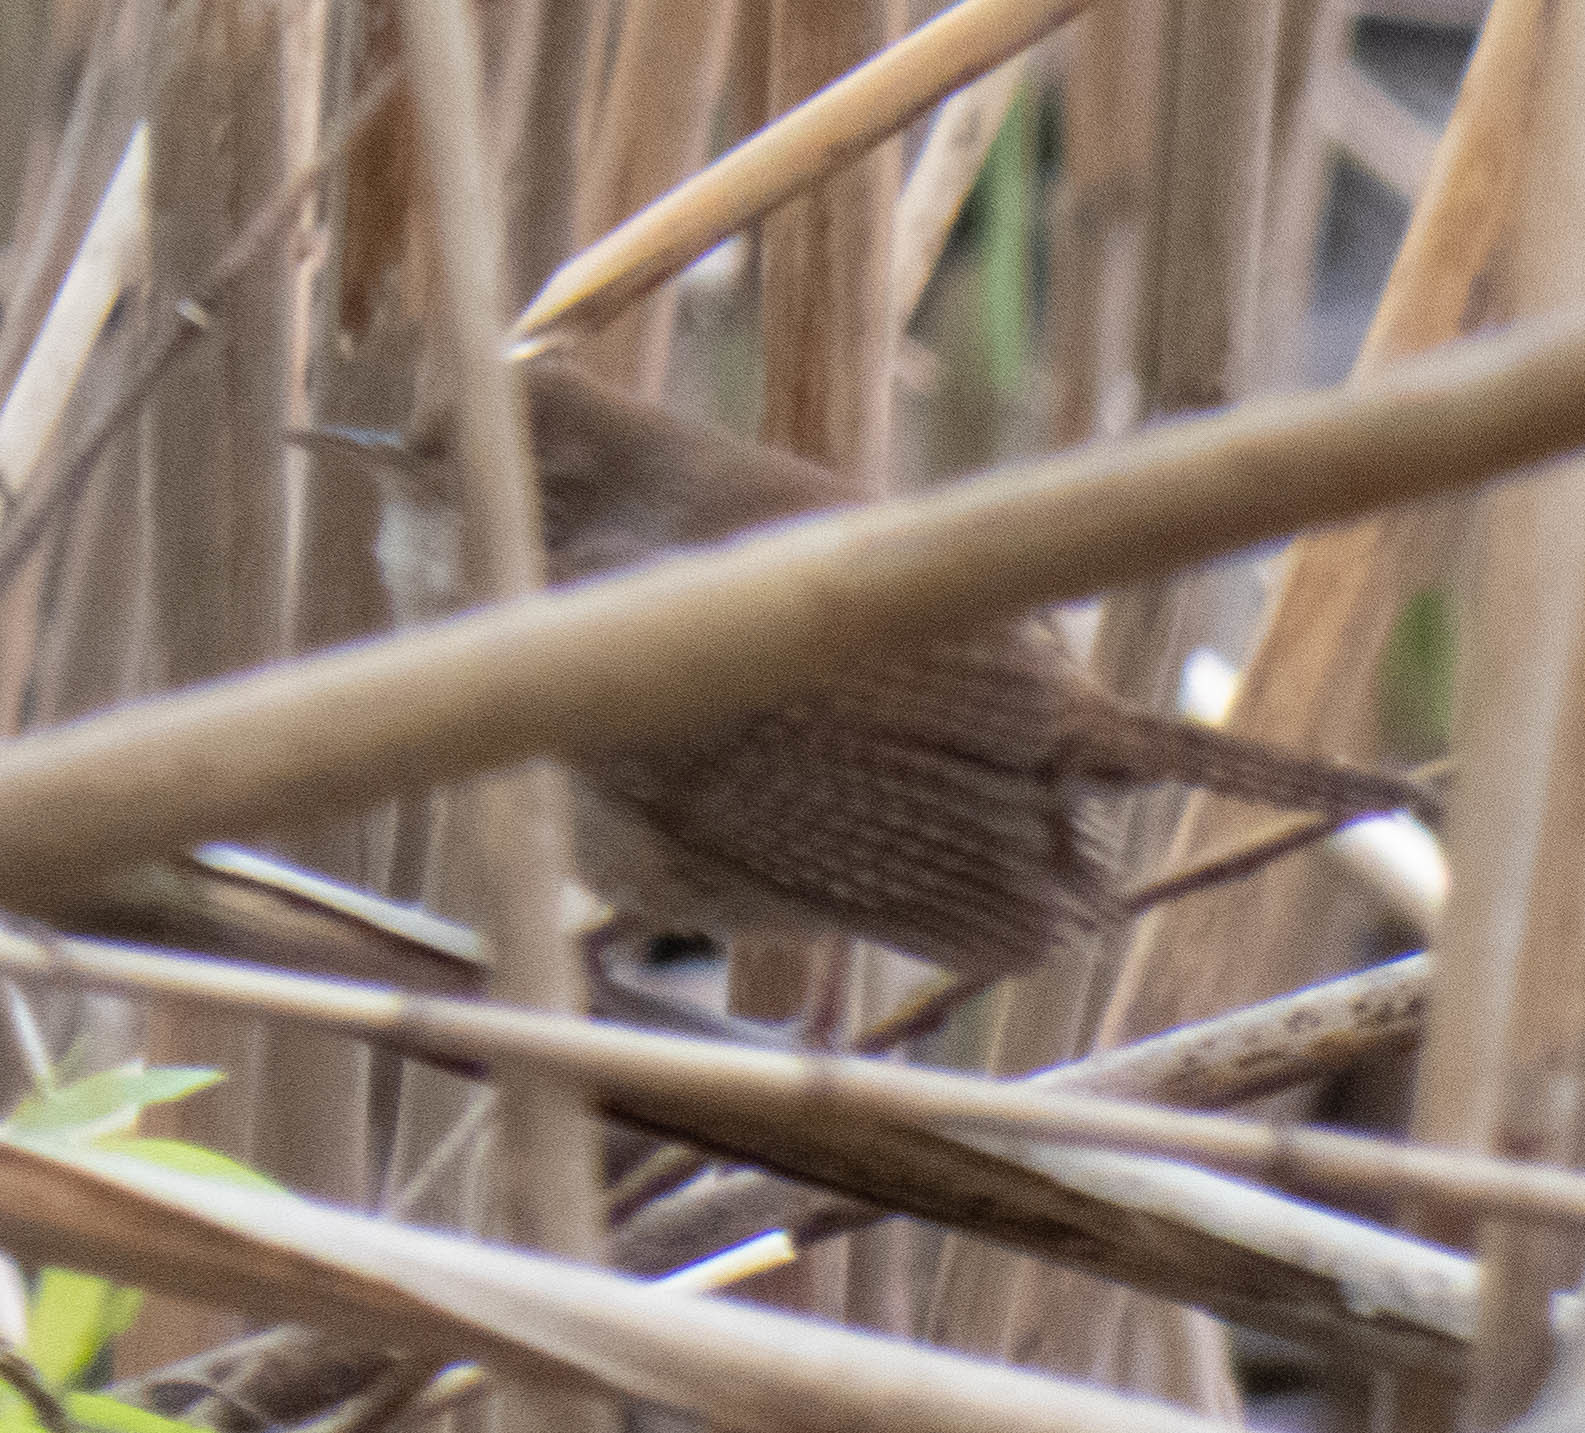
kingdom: Animalia
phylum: Chordata
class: Aves
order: Passeriformes
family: Troglodytidae
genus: Troglodytes
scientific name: Troglodytes aedon
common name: House wren
